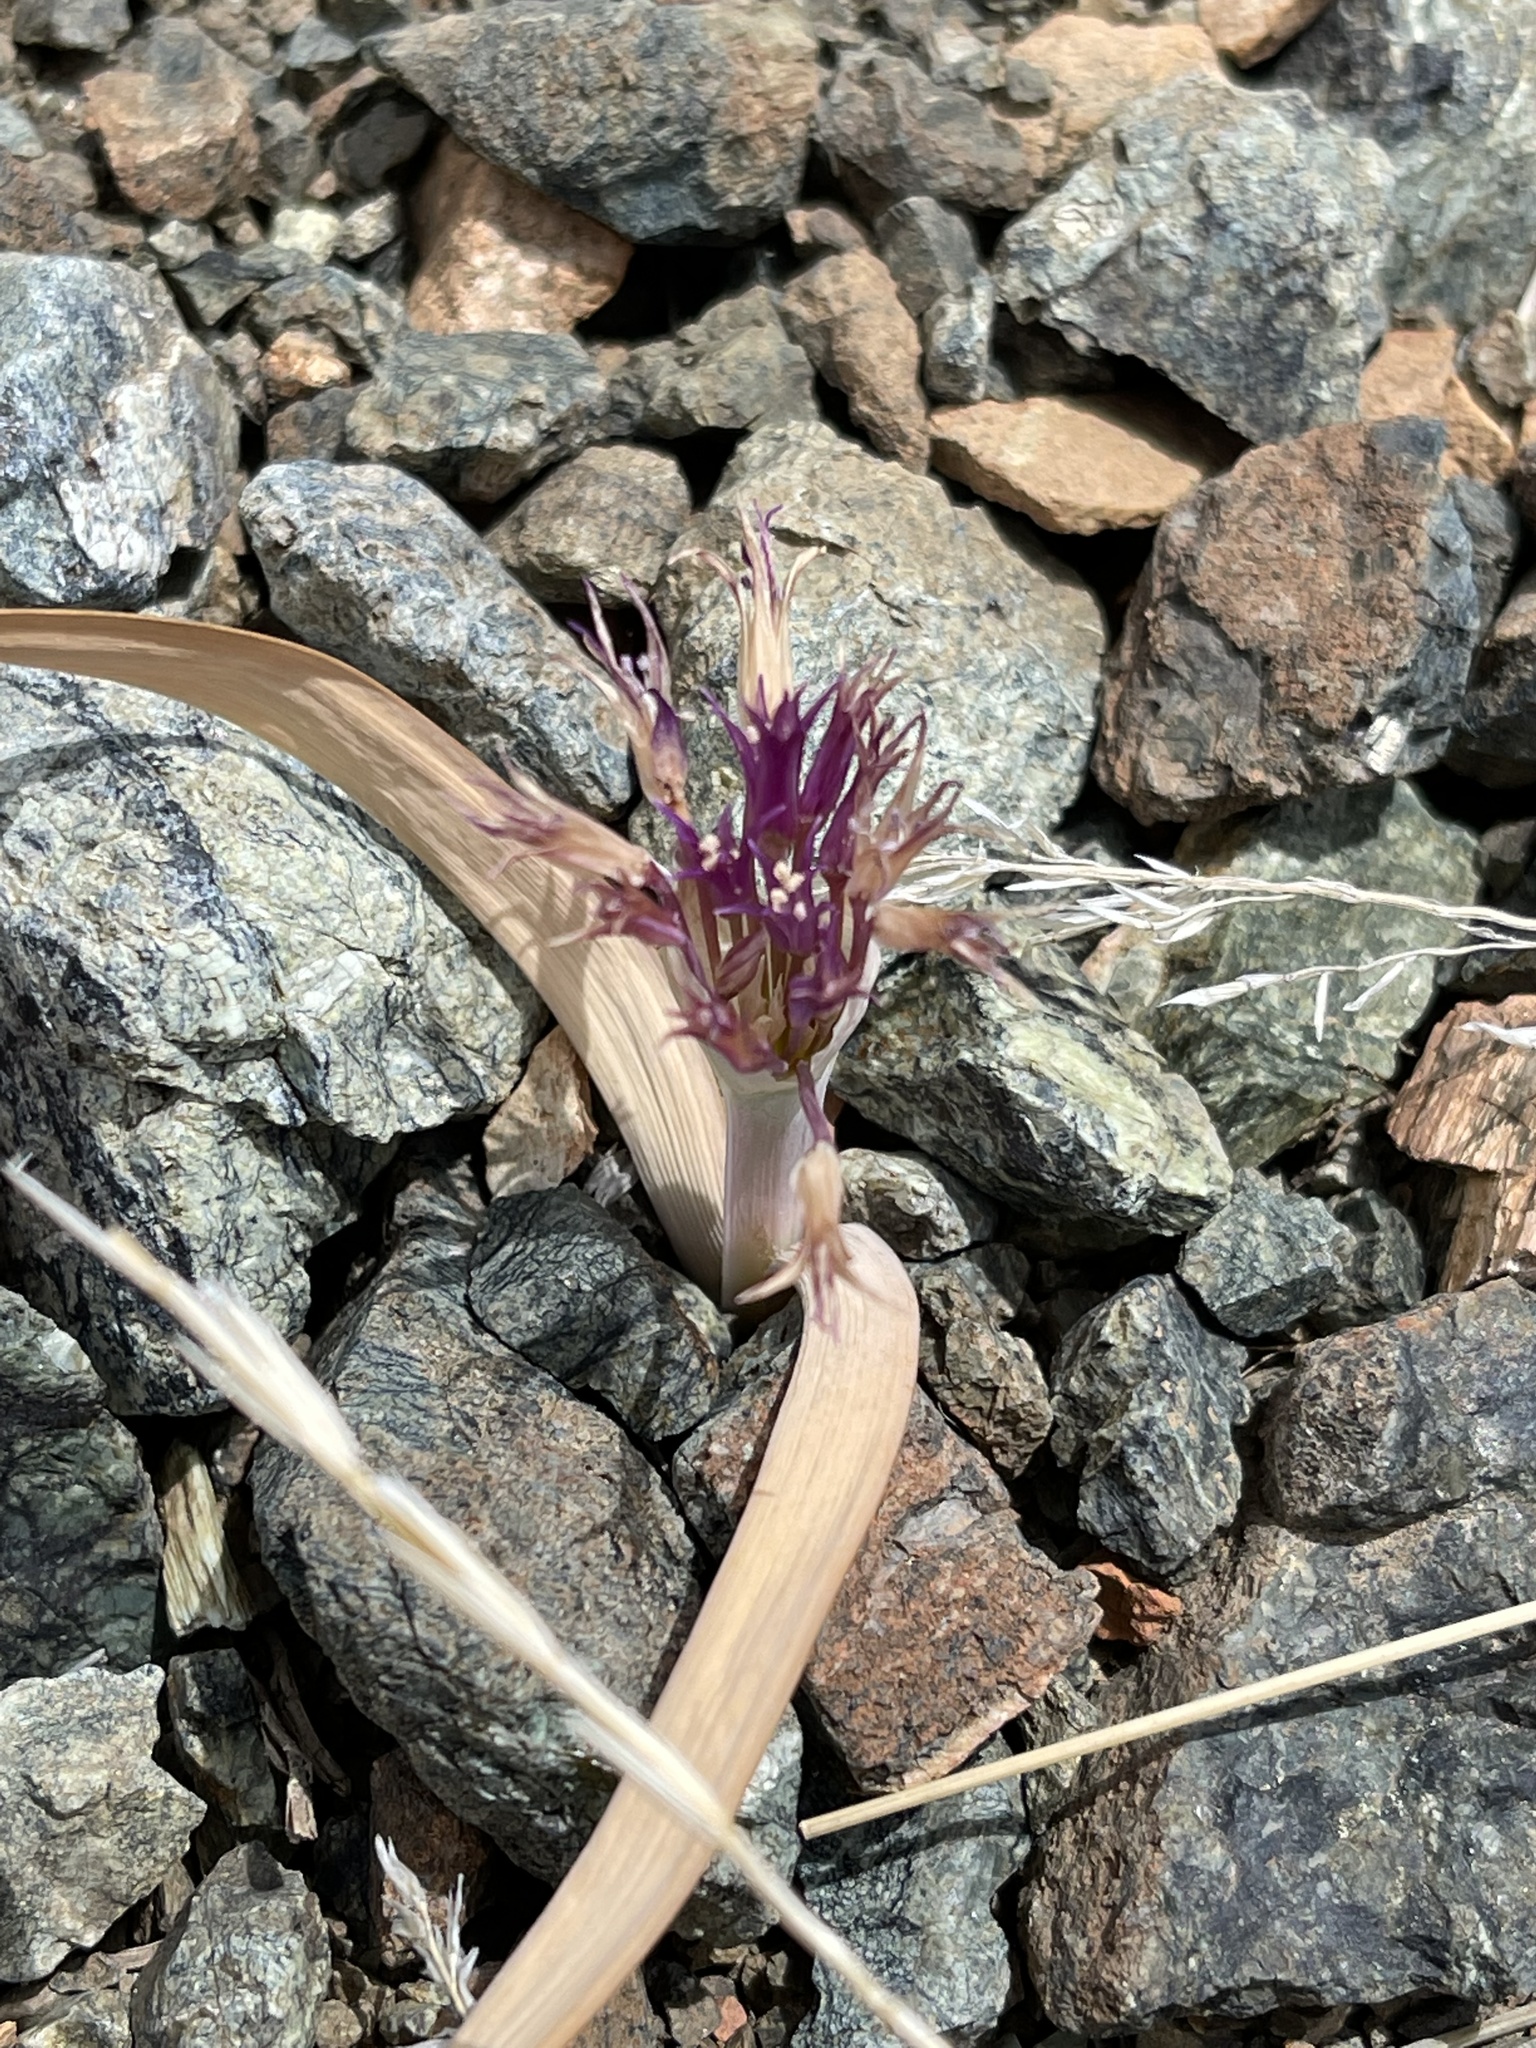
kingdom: Plantae
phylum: Tracheophyta
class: Liliopsida
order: Asparagales
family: Amaryllidaceae
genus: Allium
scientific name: Allium falcifolium
